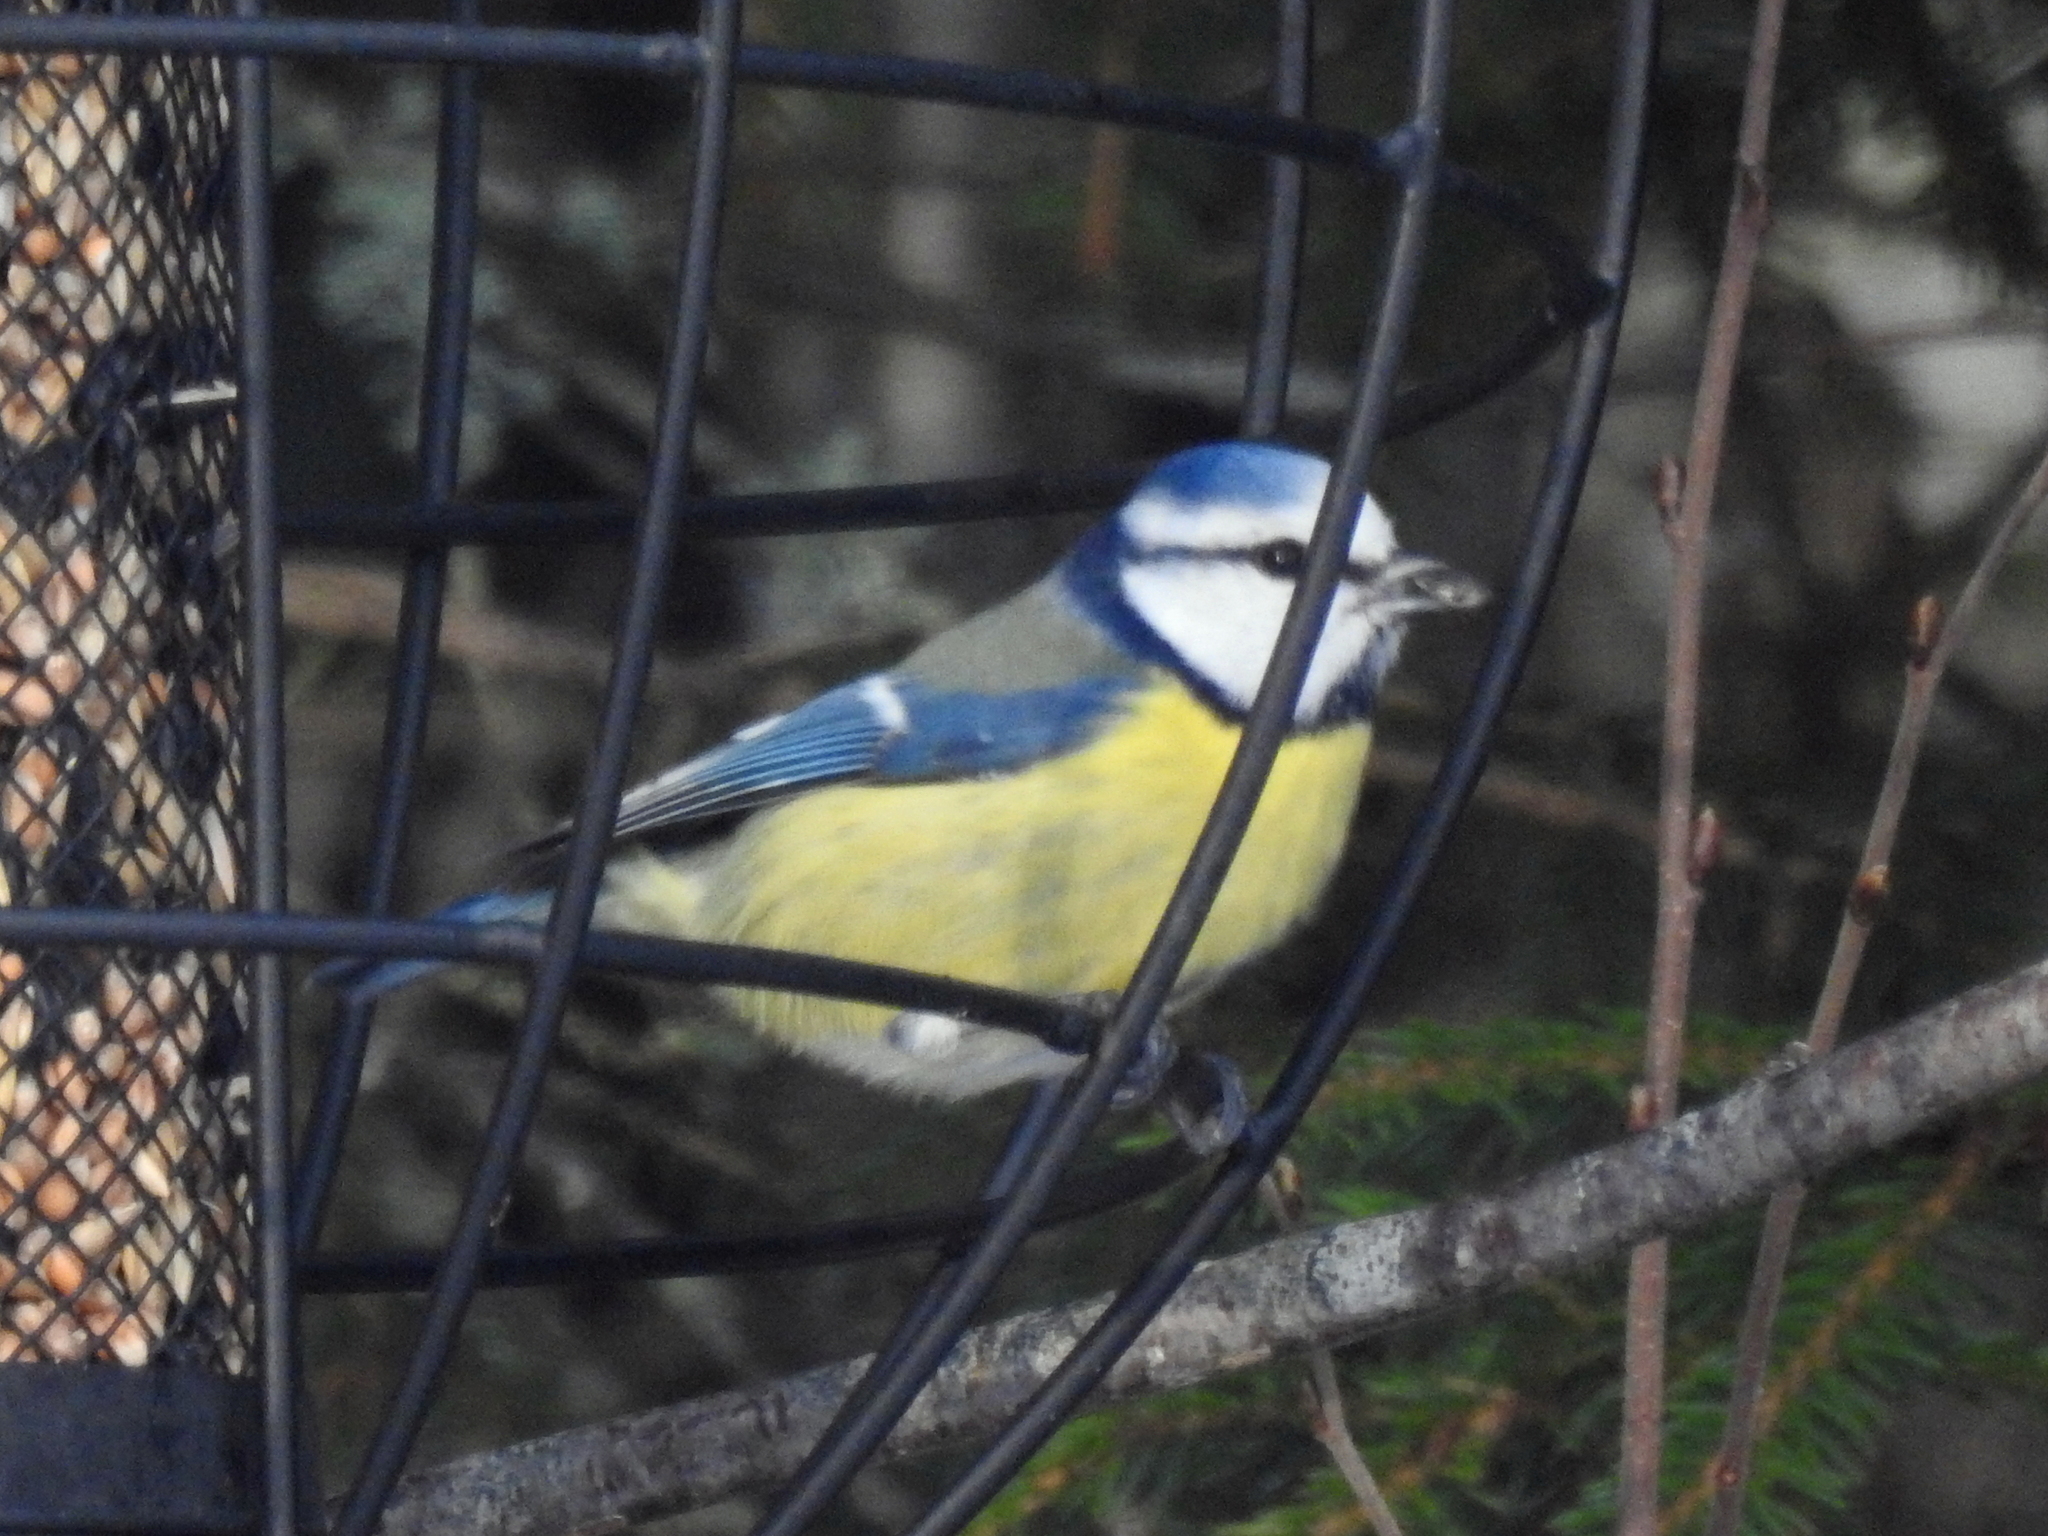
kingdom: Animalia
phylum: Chordata
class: Aves
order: Passeriformes
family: Paridae
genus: Cyanistes
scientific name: Cyanistes caeruleus
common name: Eurasian blue tit
